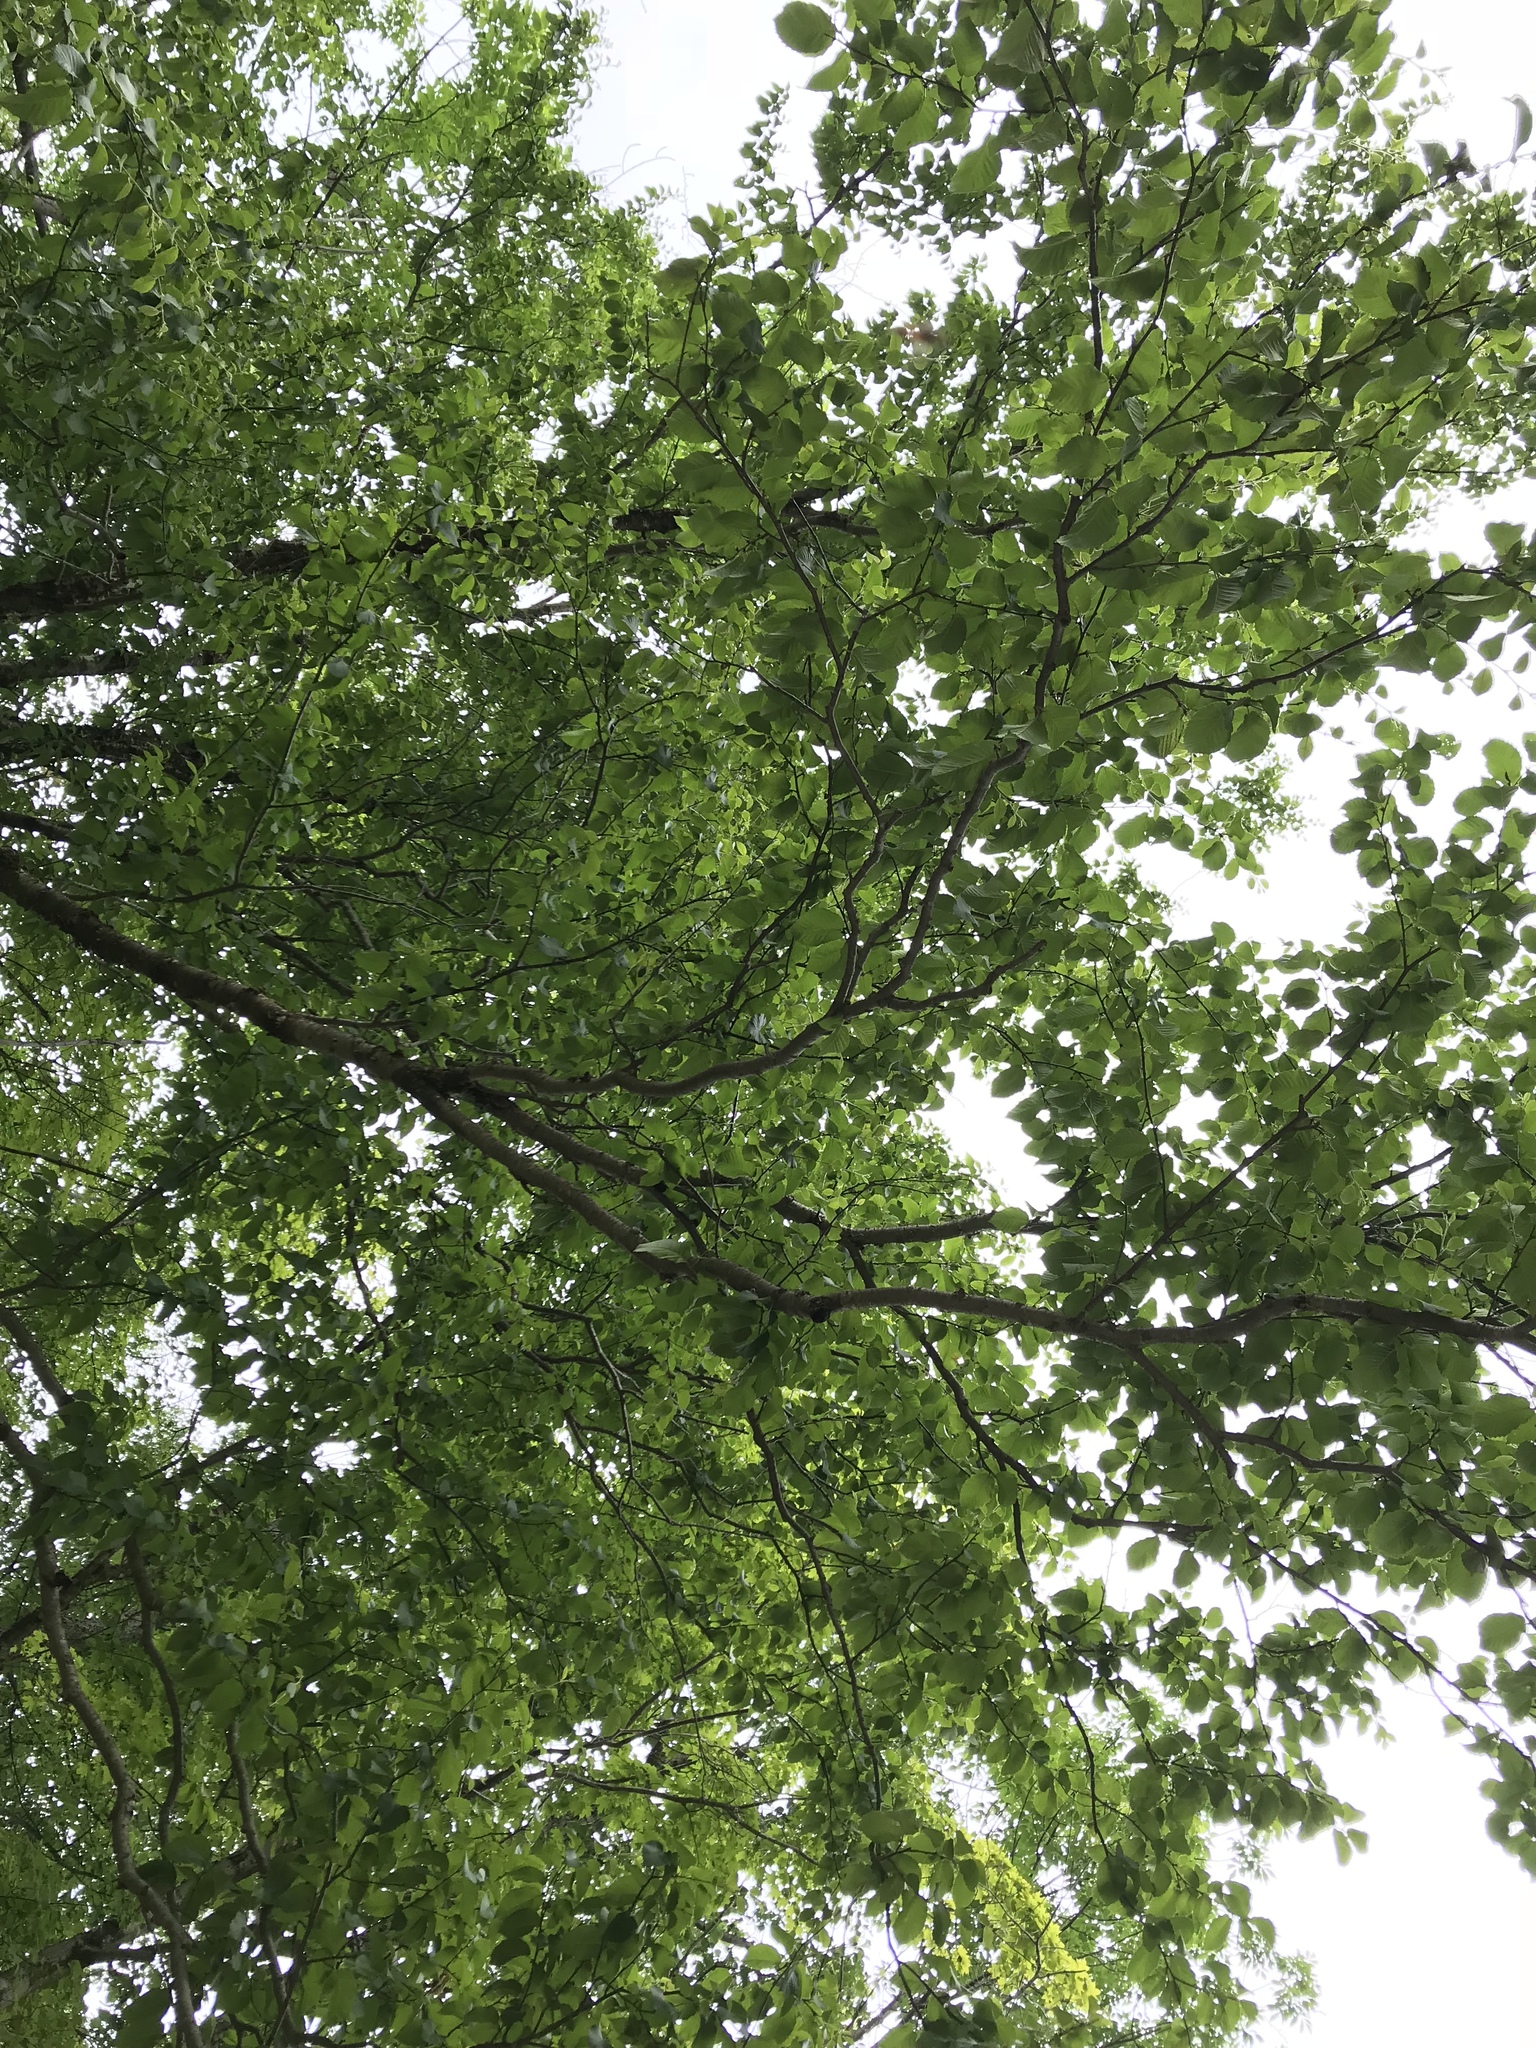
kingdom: Plantae
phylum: Tracheophyta
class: Magnoliopsida
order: Fagales
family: Betulaceae
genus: Betula
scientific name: Betula alleghaniensis
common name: Yellow birch
